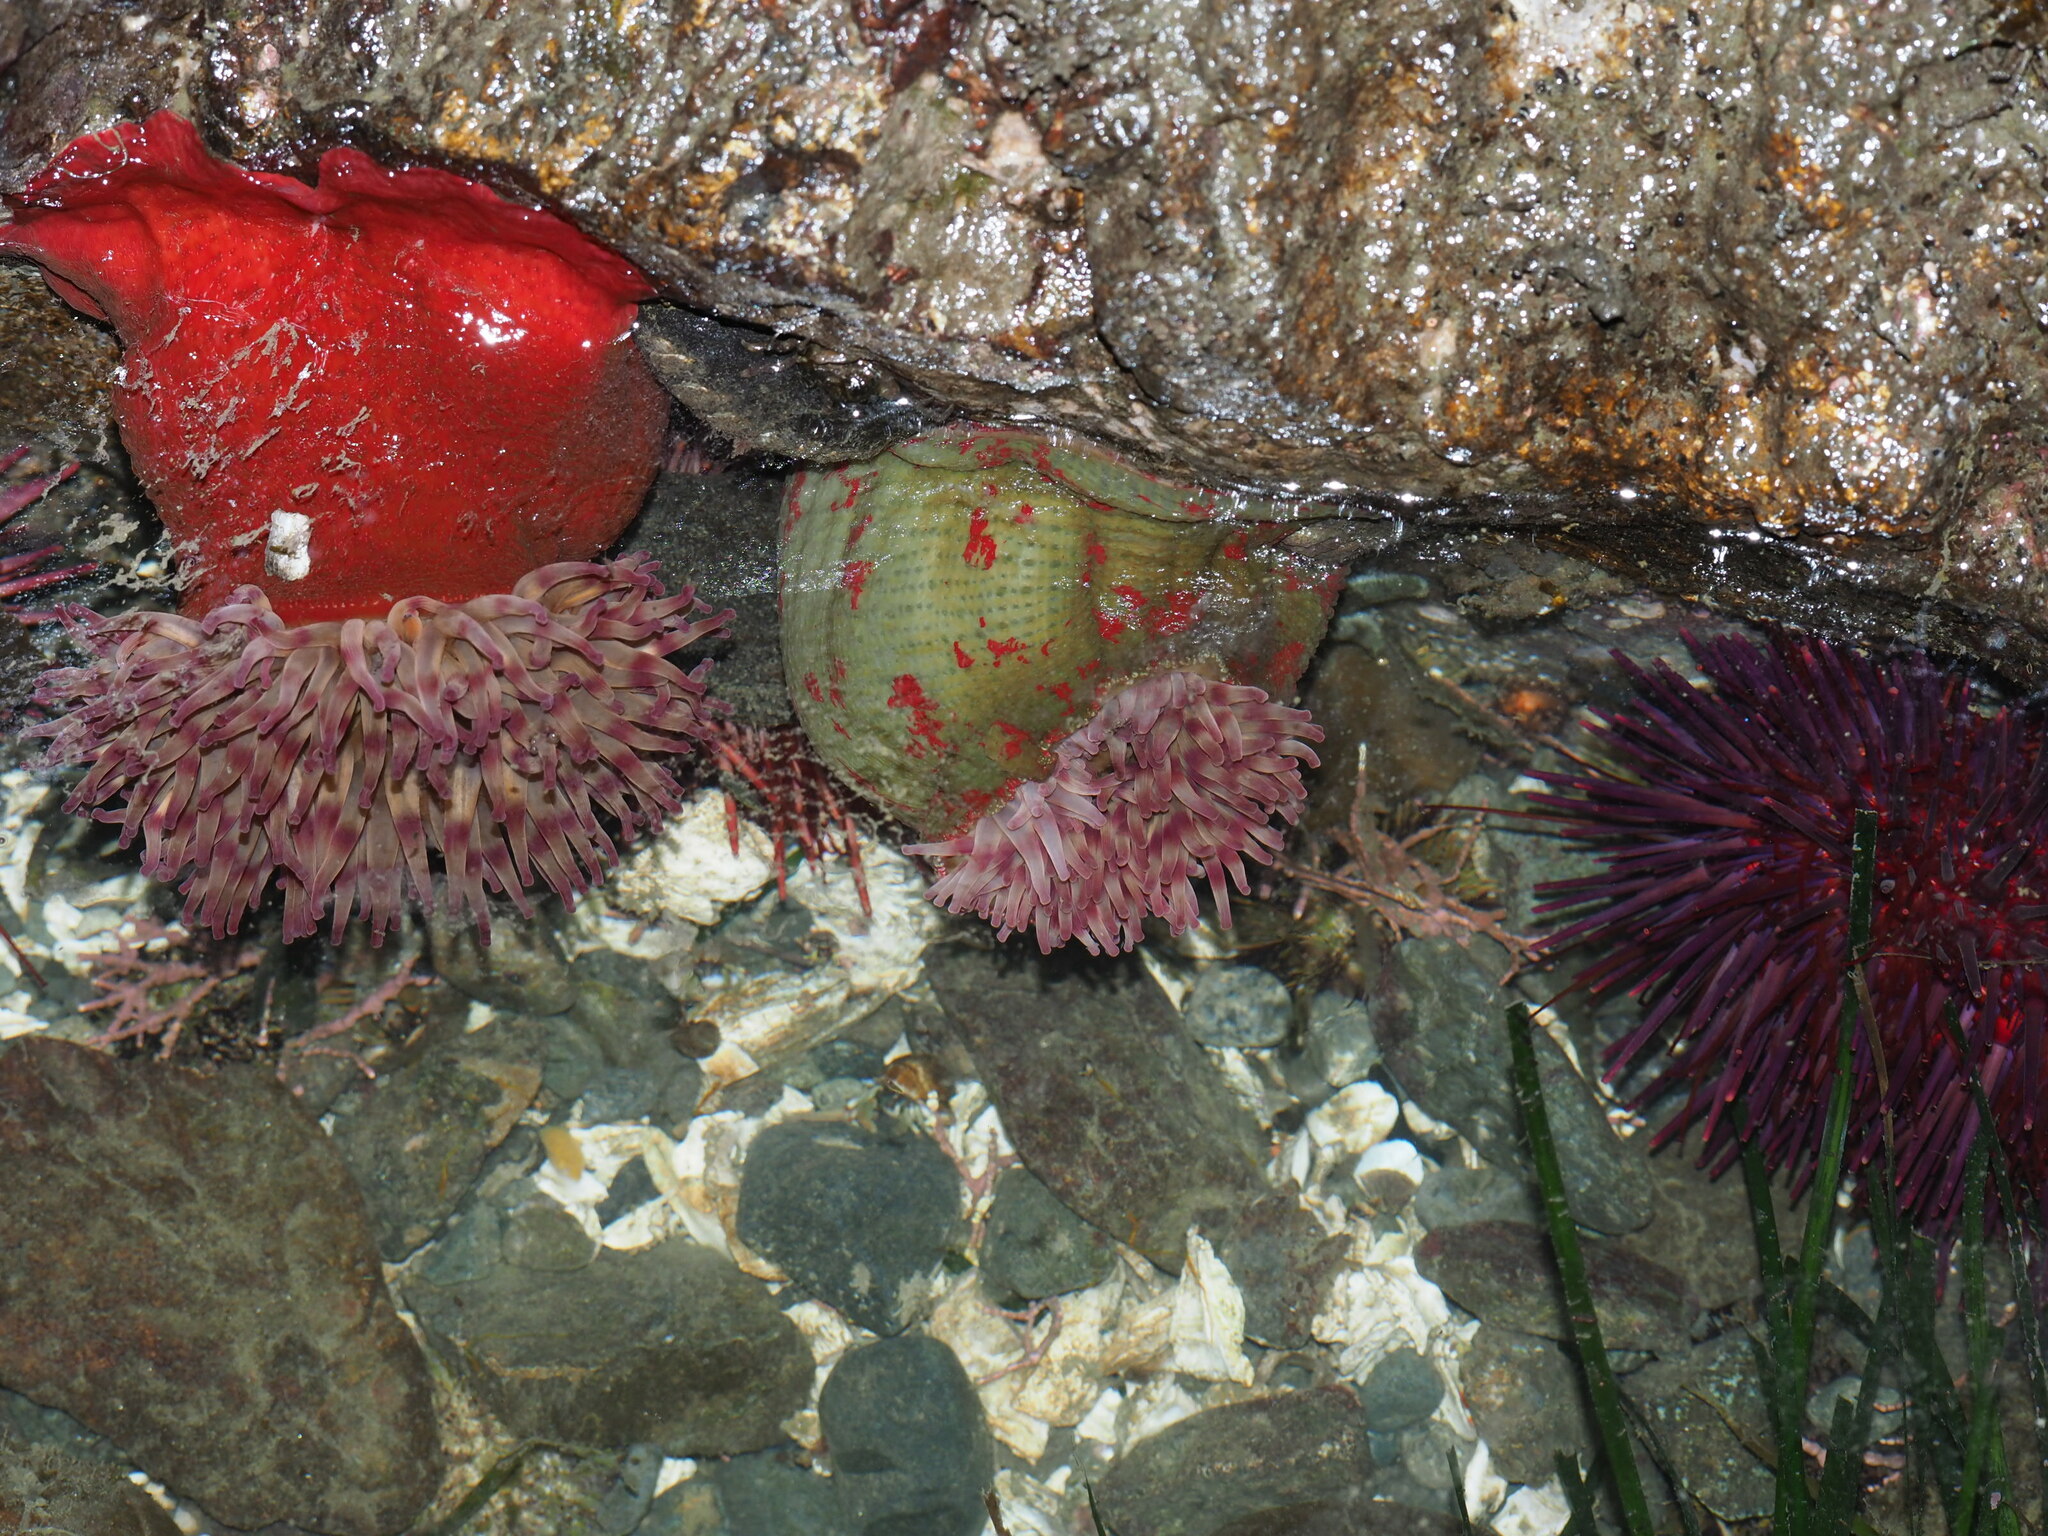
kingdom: Animalia
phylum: Cnidaria
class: Anthozoa
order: Actiniaria
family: Actiniidae
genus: Urticina
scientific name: Urticina grebelnyi
